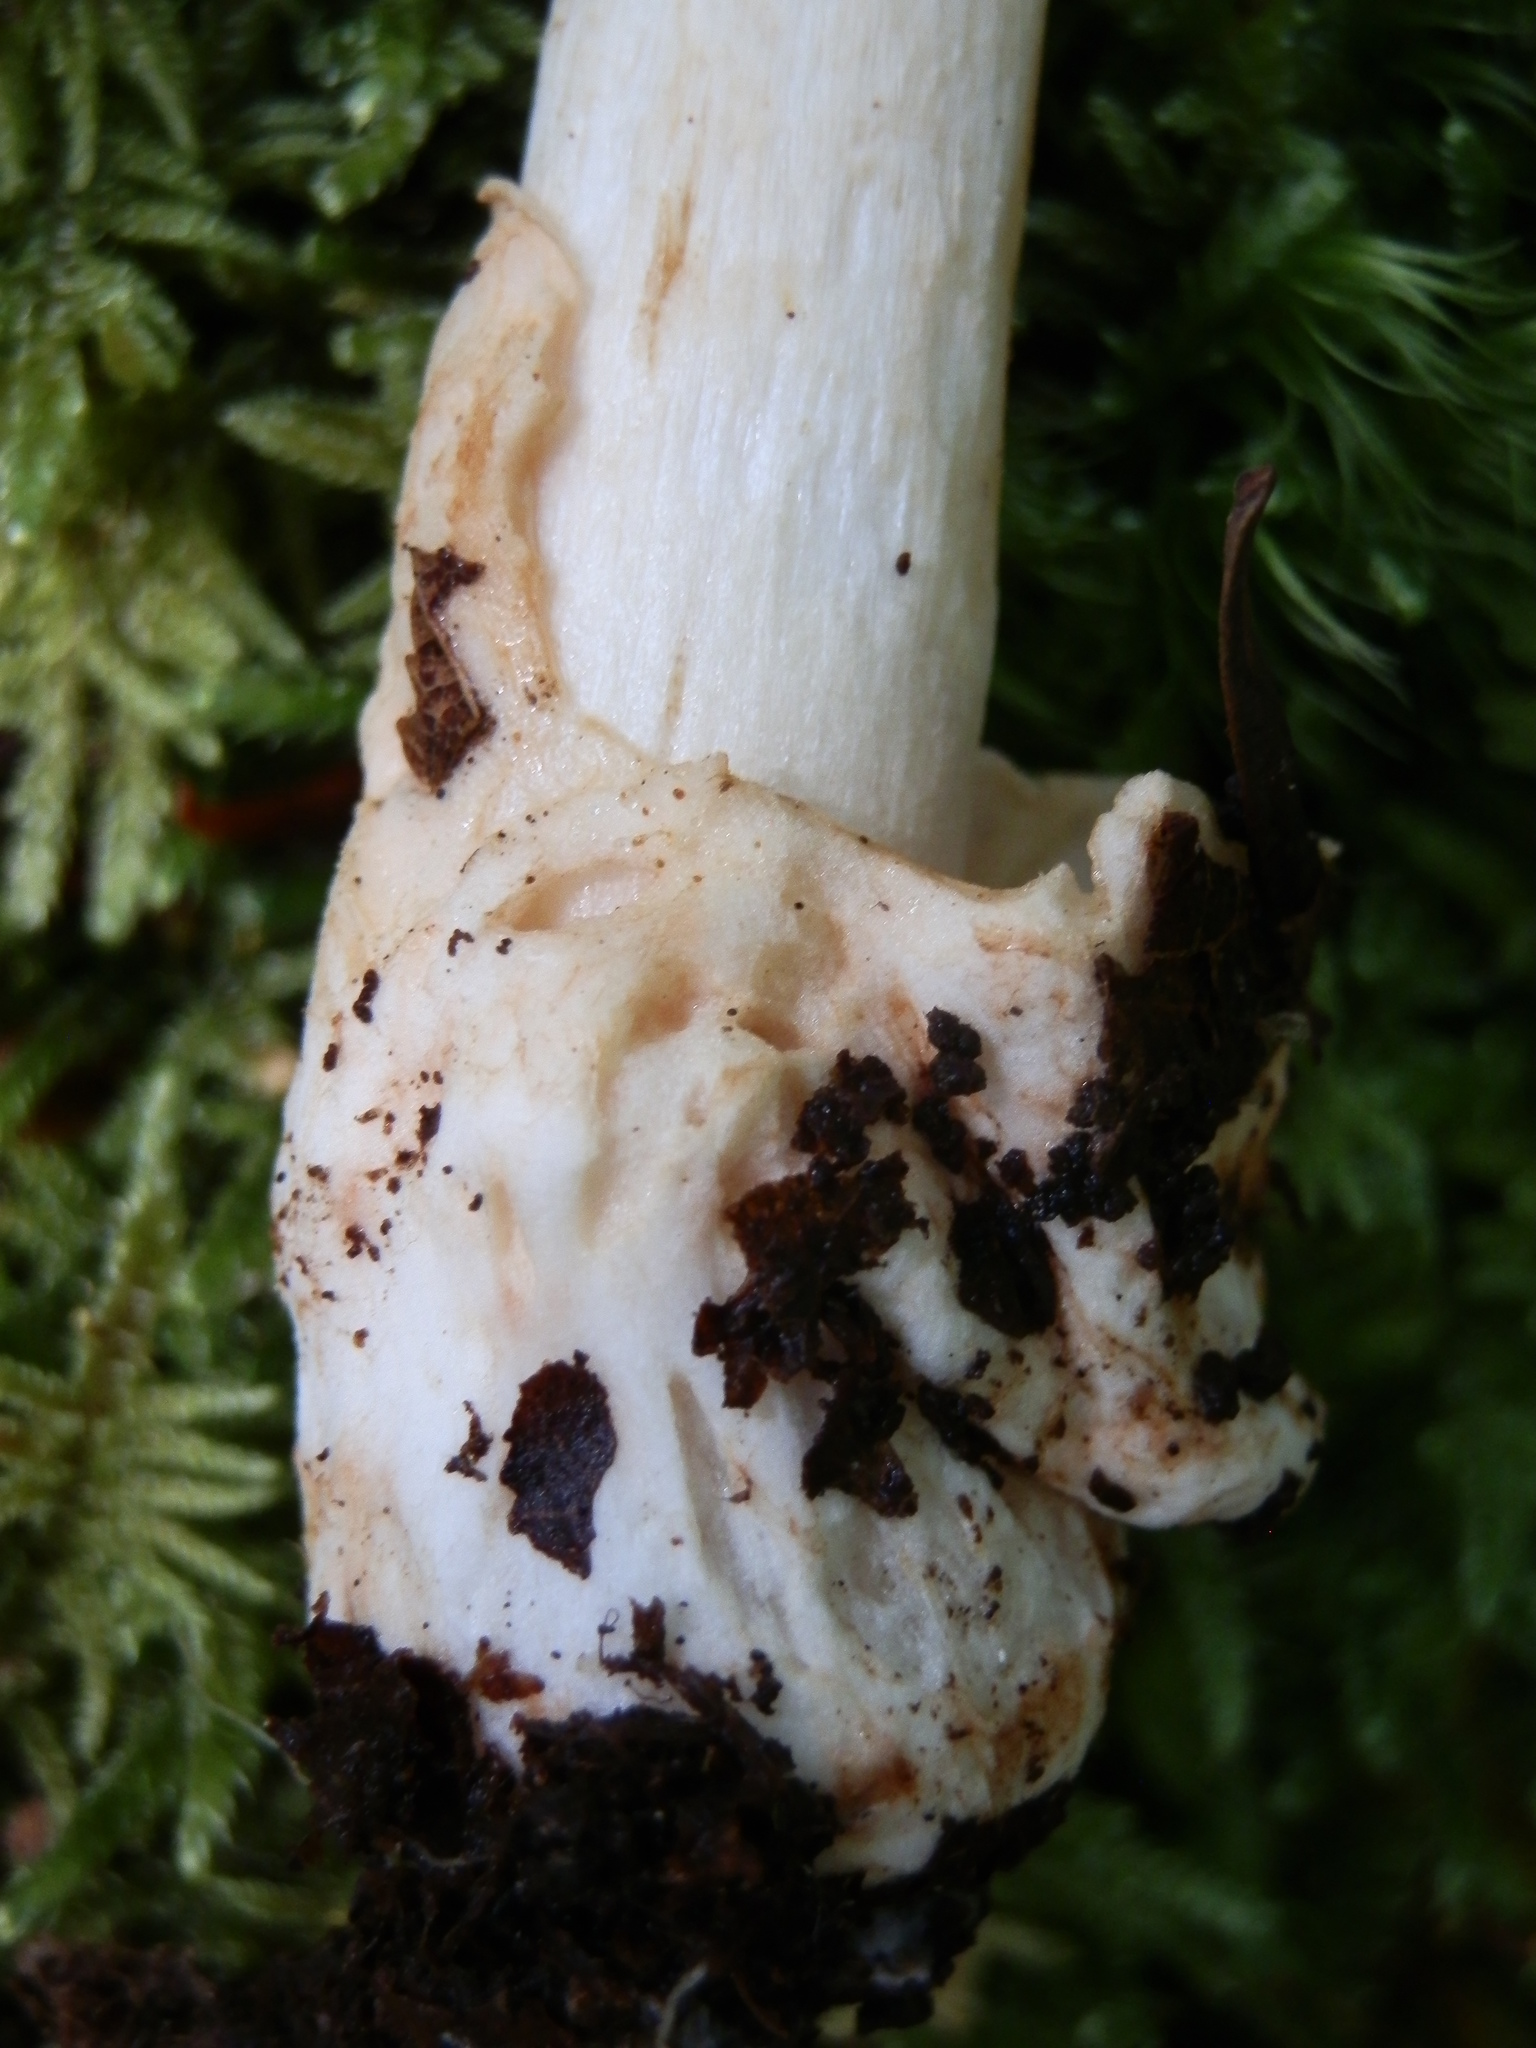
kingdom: Fungi
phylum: Basidiomycota
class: Agaricomycetes
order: Agaricales
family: Amanitaceae
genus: Amanita
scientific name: Amanita fulva
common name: Tawny grisette
